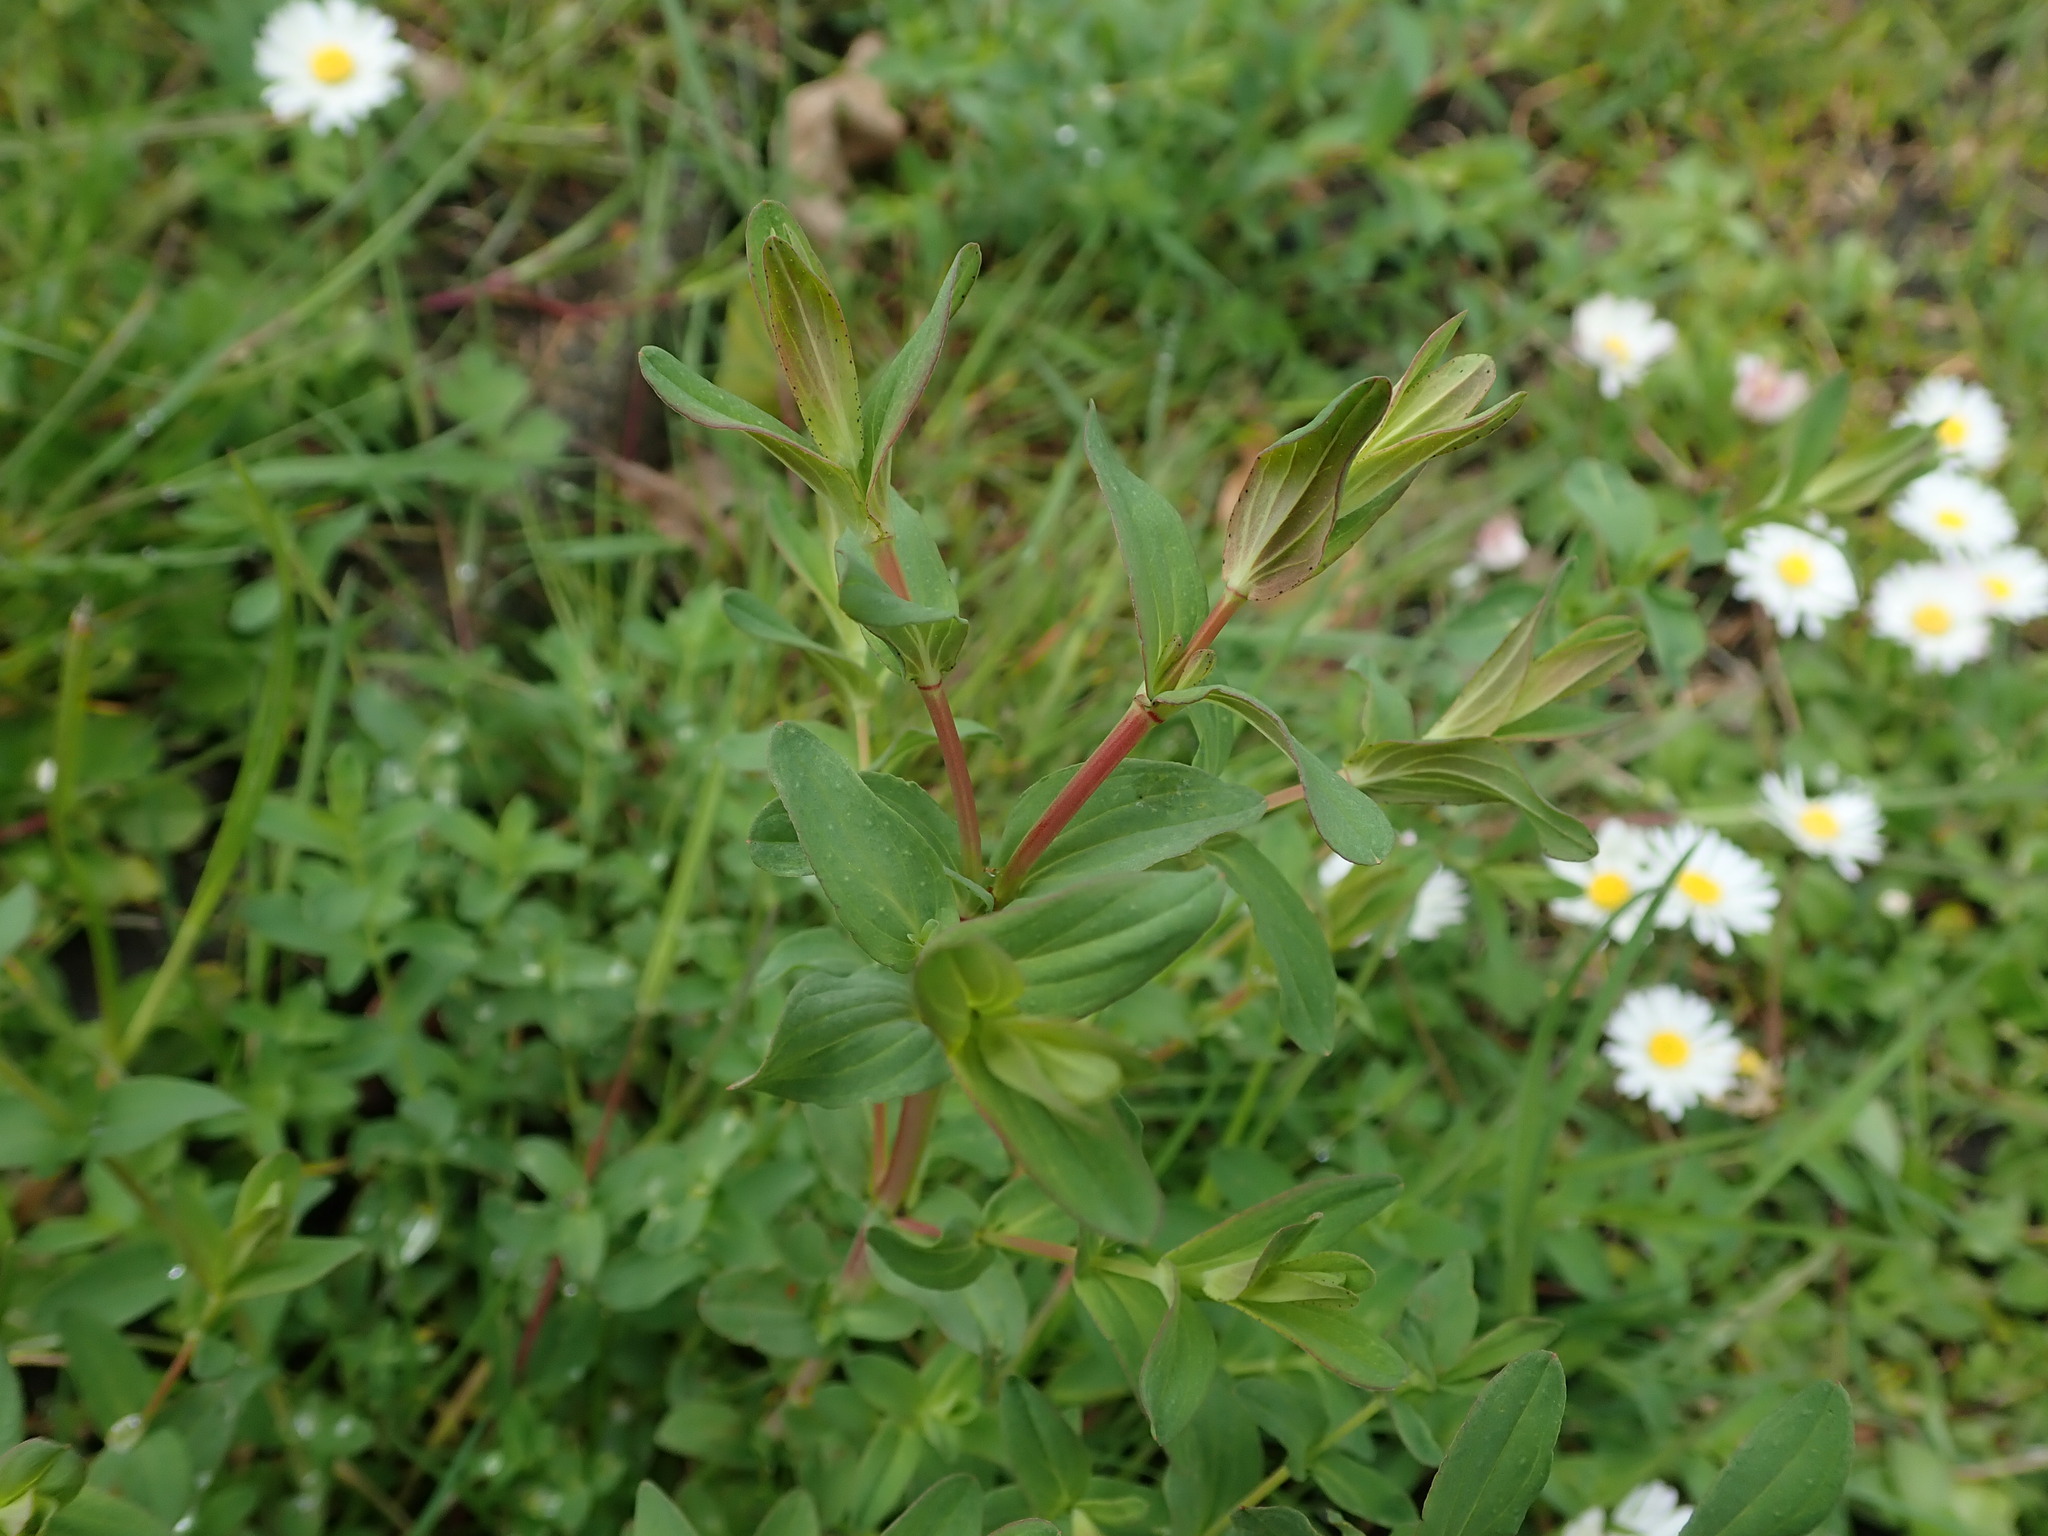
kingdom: Plantae
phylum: Tracheophyta
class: Magnoliopsida
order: Malpighiales
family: Hypericaceae
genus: Hypericum
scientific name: Hypericum perforatum
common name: Common st. johnswort
